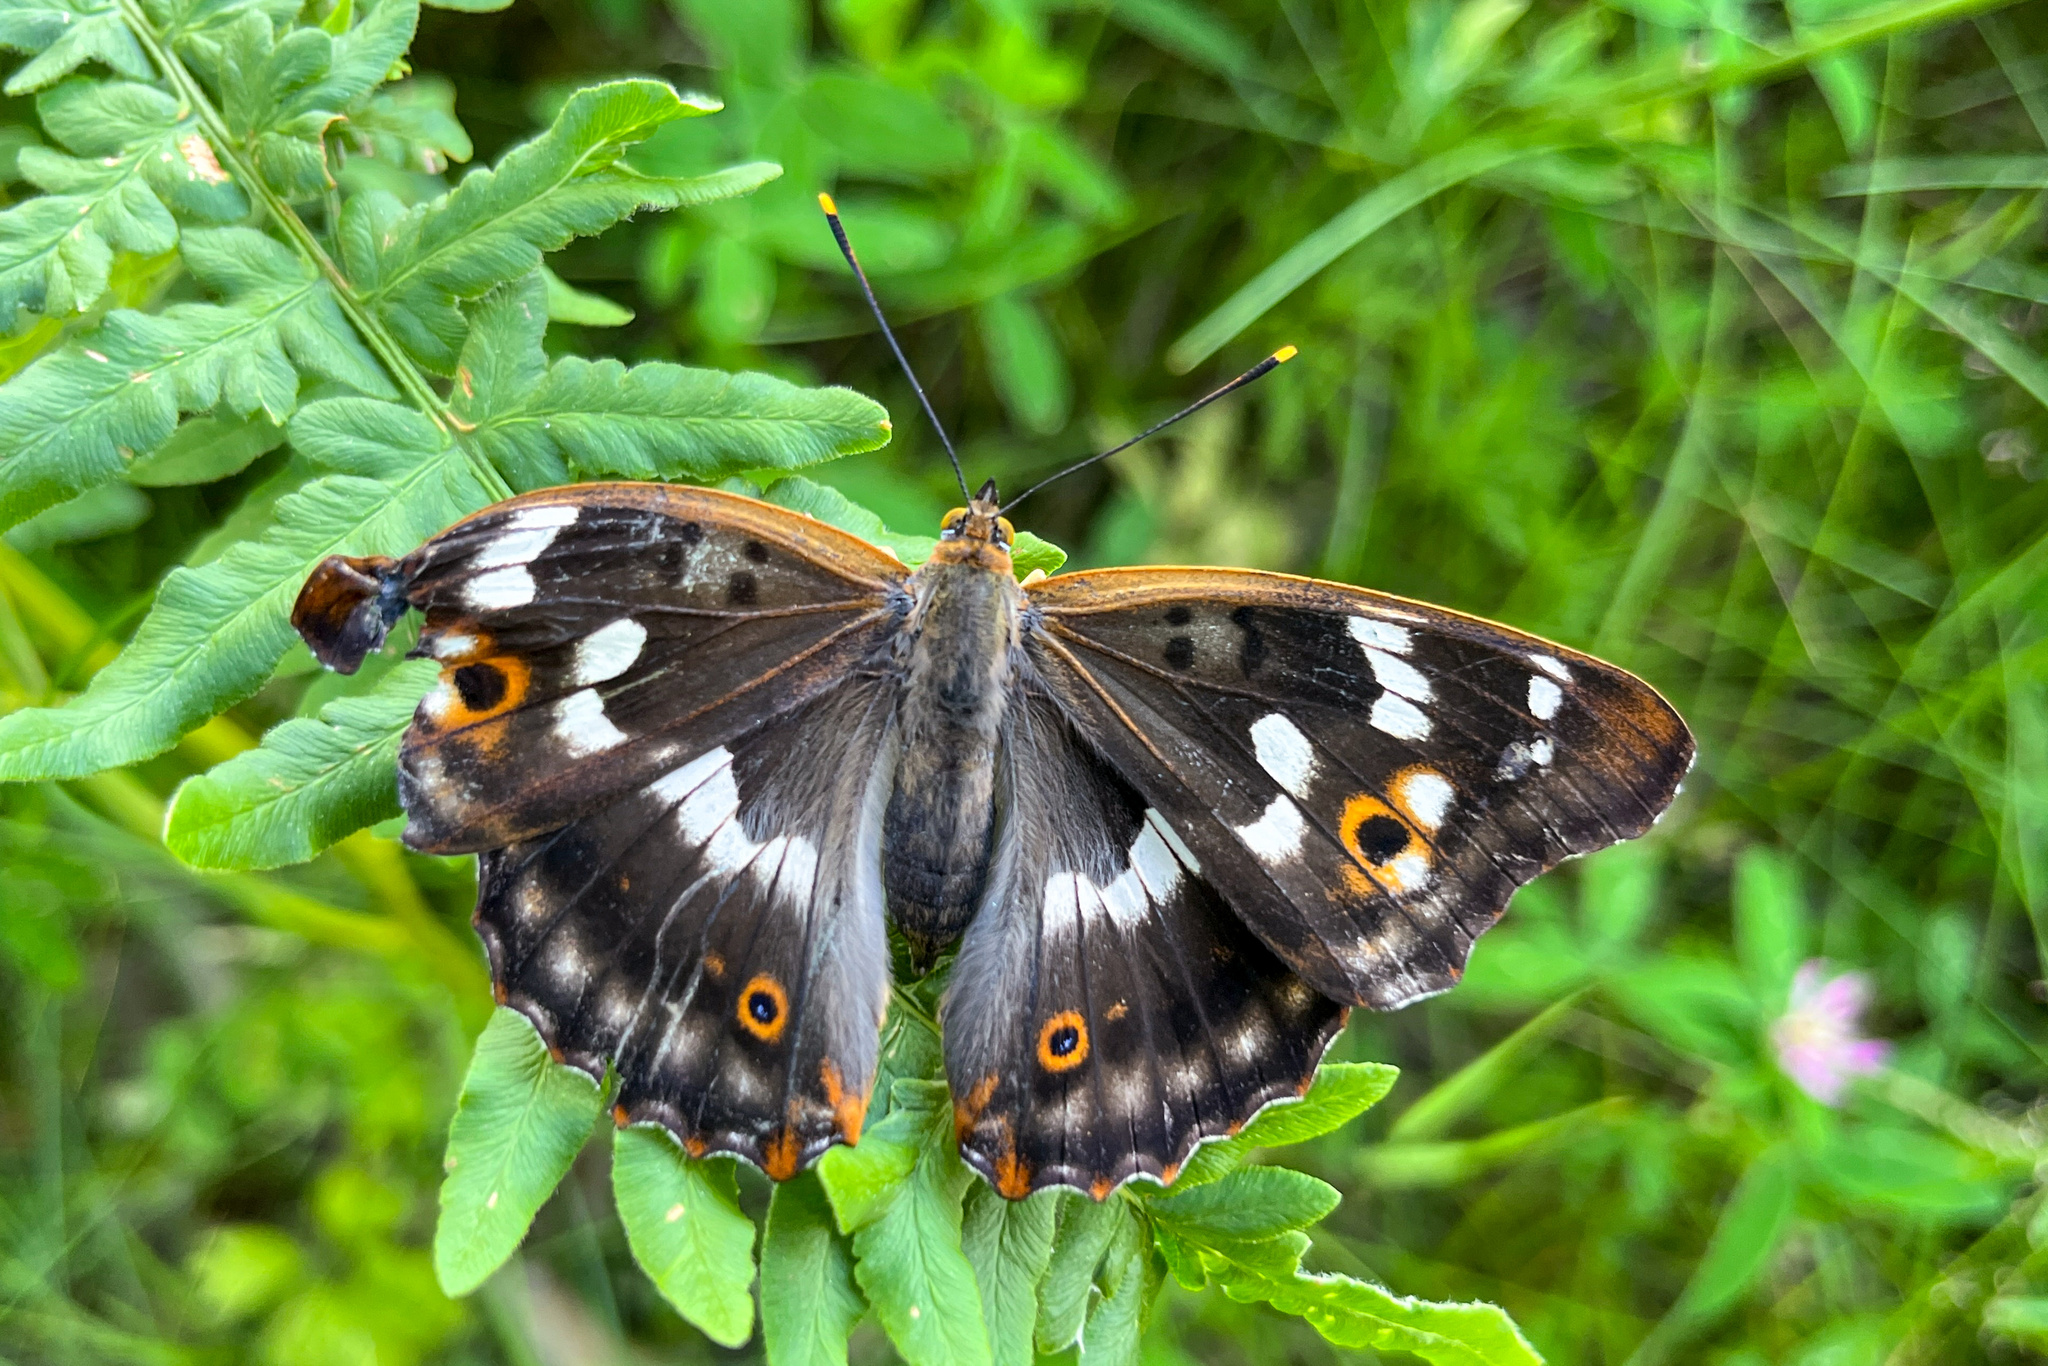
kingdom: Animalia
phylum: Arthropoda
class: Insecta
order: Lepidoptera
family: Nymphalidae
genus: Apatura
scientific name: Apatura ilia
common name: Lesser purple emperor
